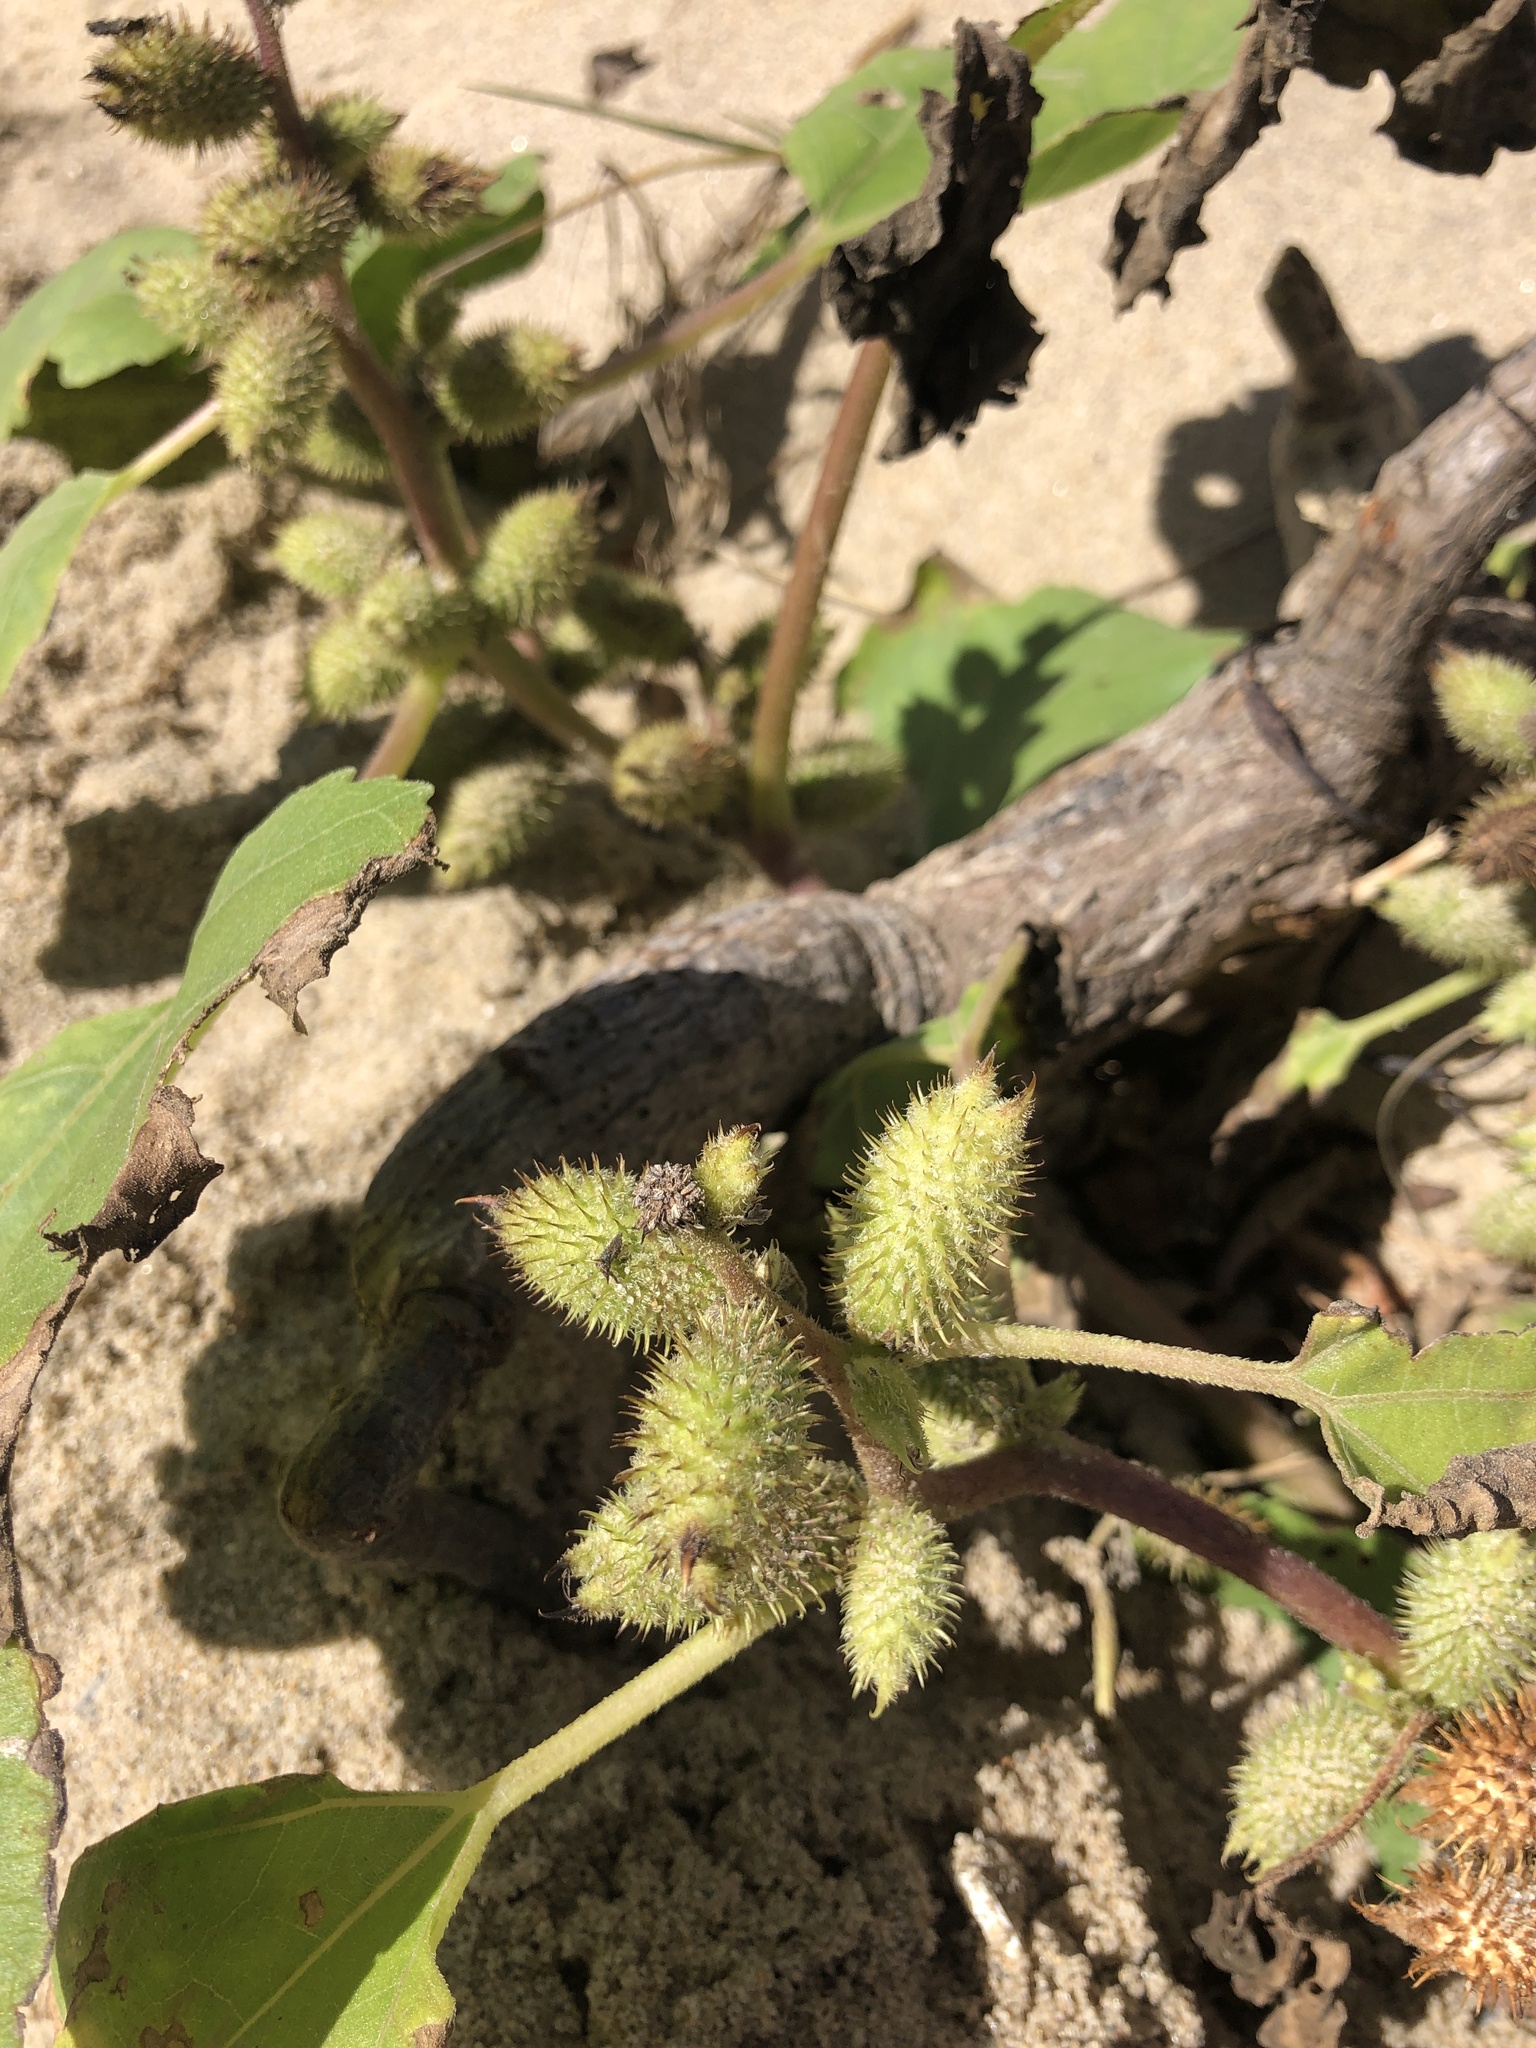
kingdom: Plantae
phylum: Tracheophyta
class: Magnoliopsida
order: Asterales
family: Asteraceae
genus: Xanthium
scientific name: Xanthium strumarium
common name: Rough cocklebur
